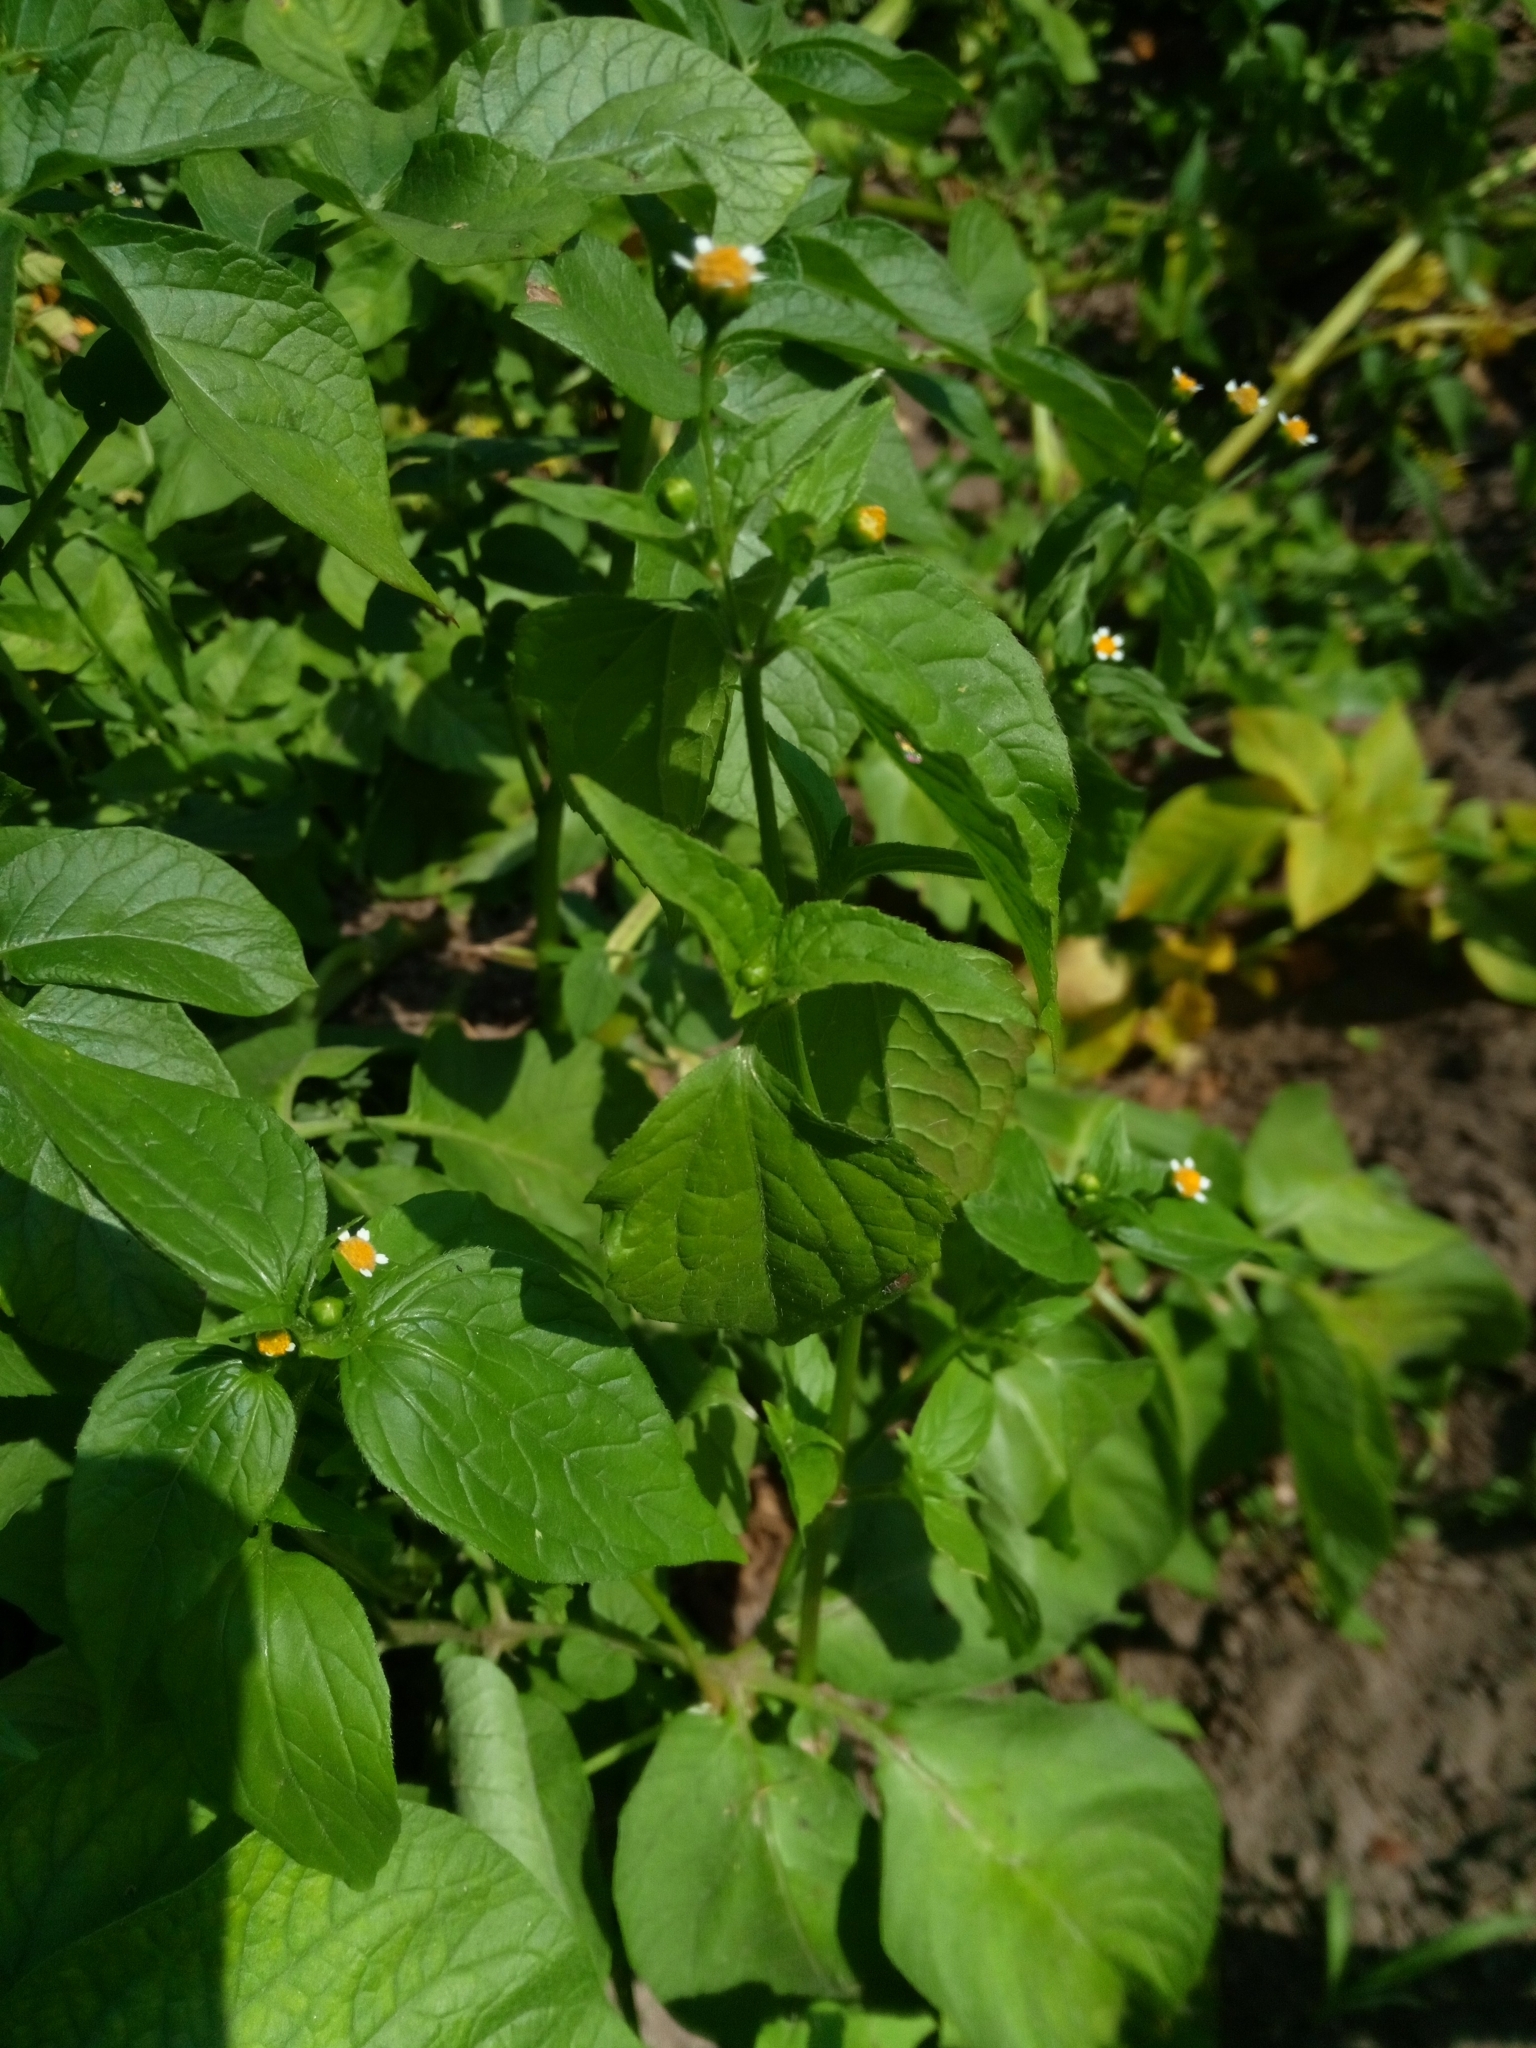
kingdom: Plantae
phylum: Tracheophyta
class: Magnoliopsida
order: Asterales
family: Asteraceae
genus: Galinsoga
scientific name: Galinsoga parviflora
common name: Gallant soldier
